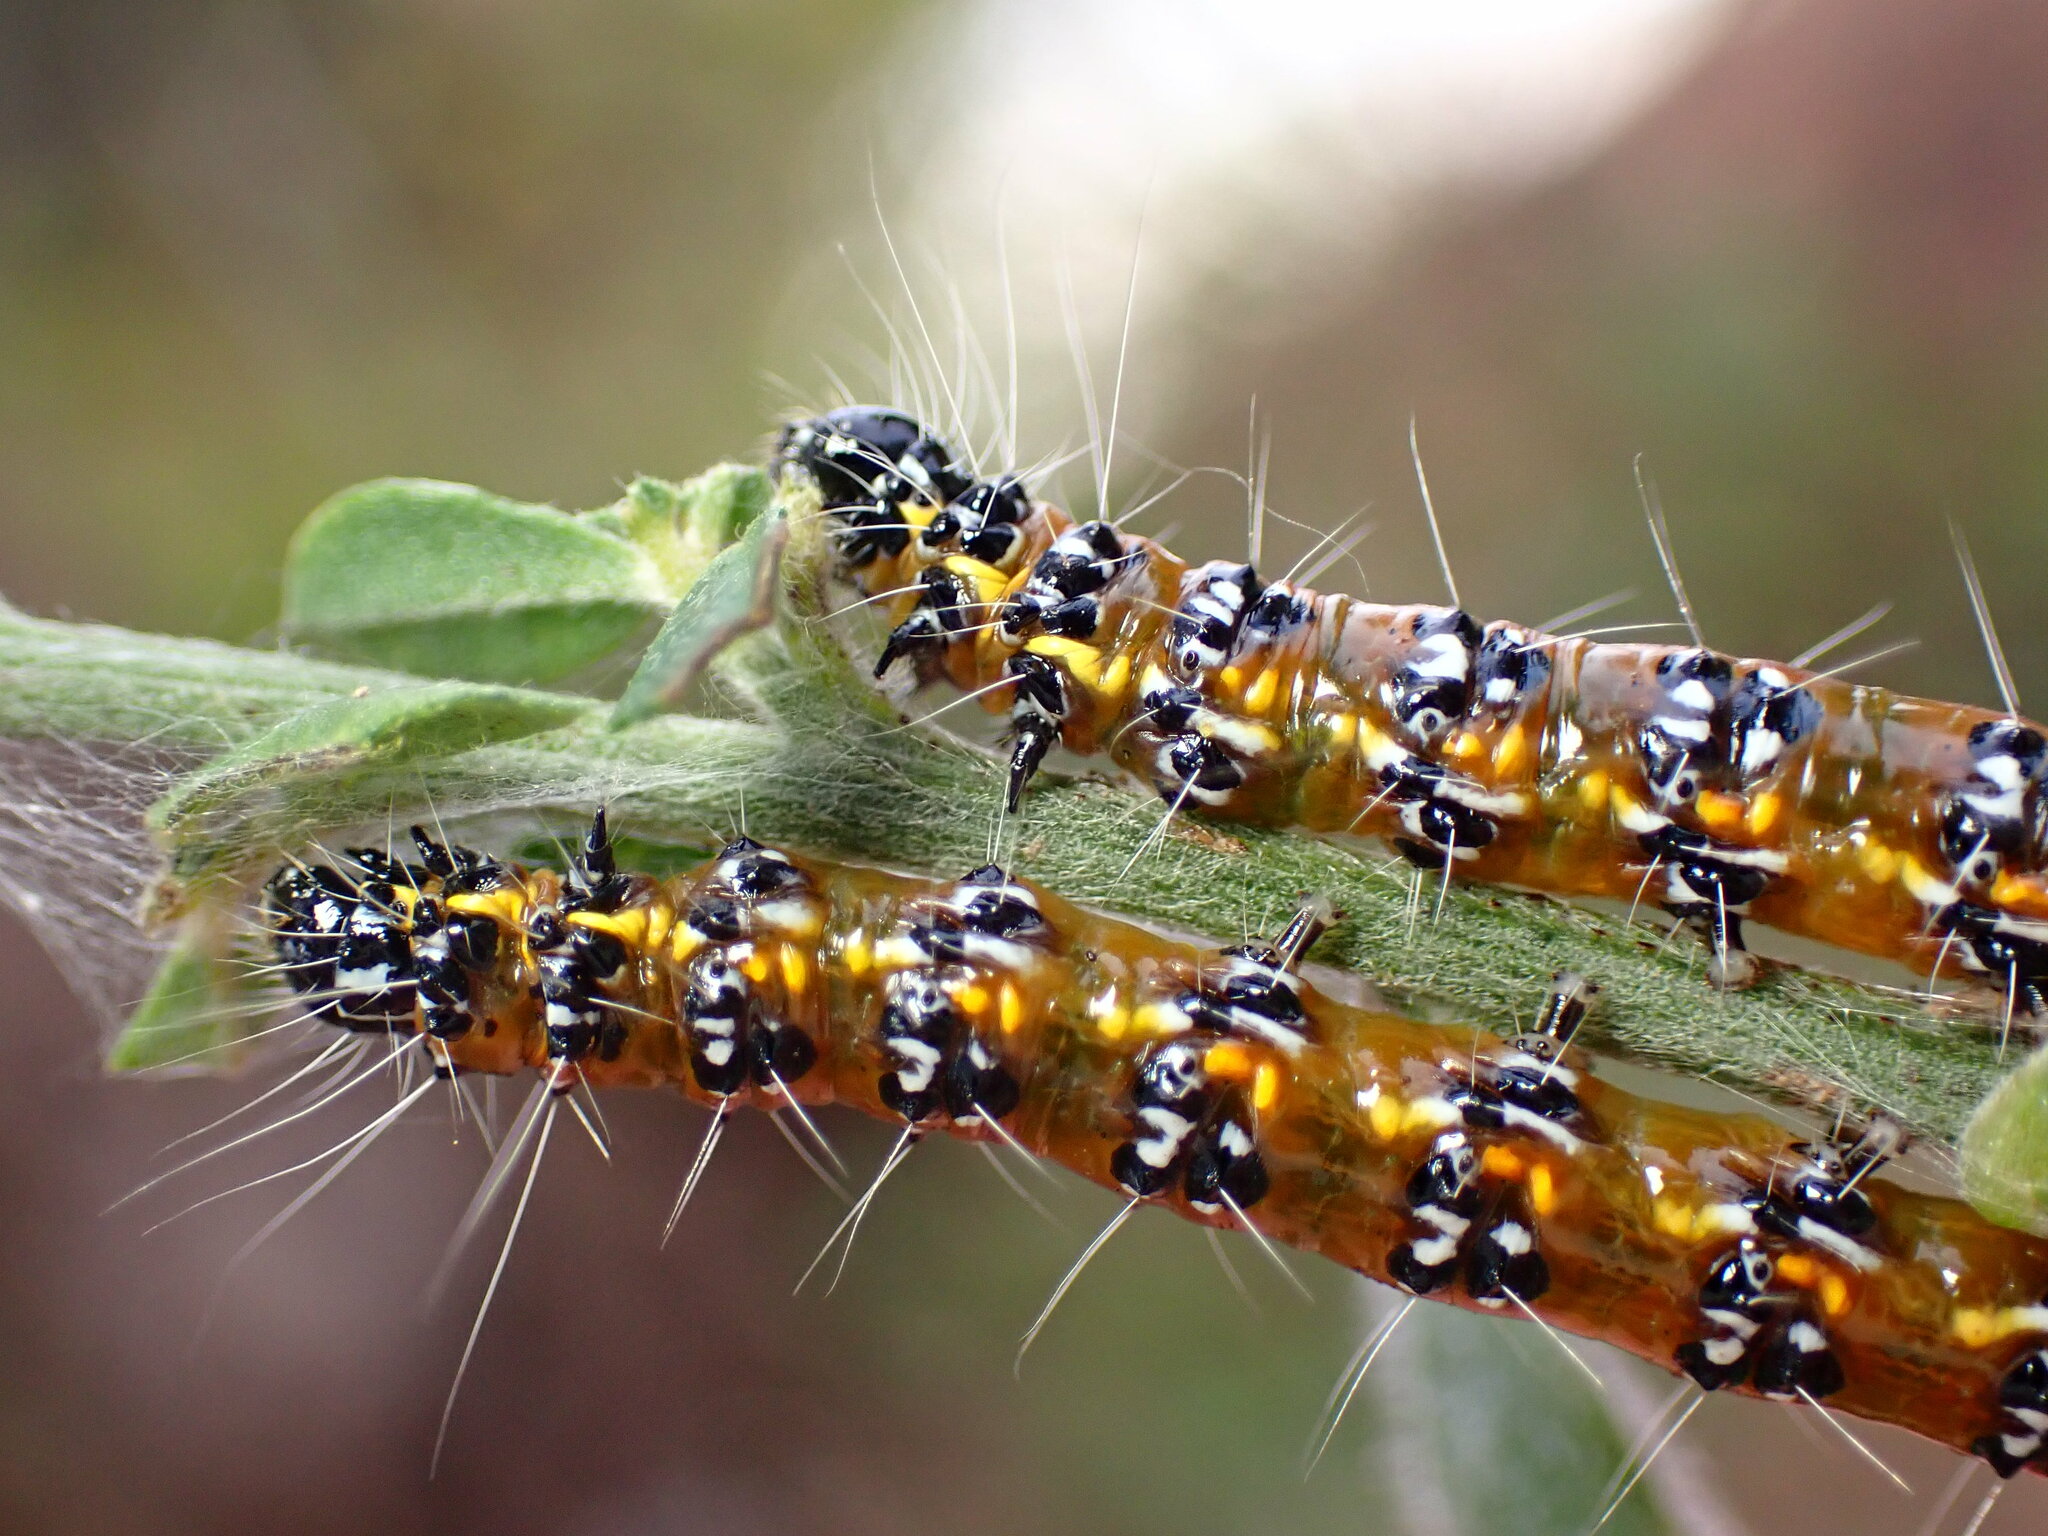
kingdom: Animalia
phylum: Arthropoda
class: Insecta
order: Lepidoptera
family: Crambidae
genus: Uresiphita
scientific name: Uresiphita reversalis
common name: Genista broom moth
